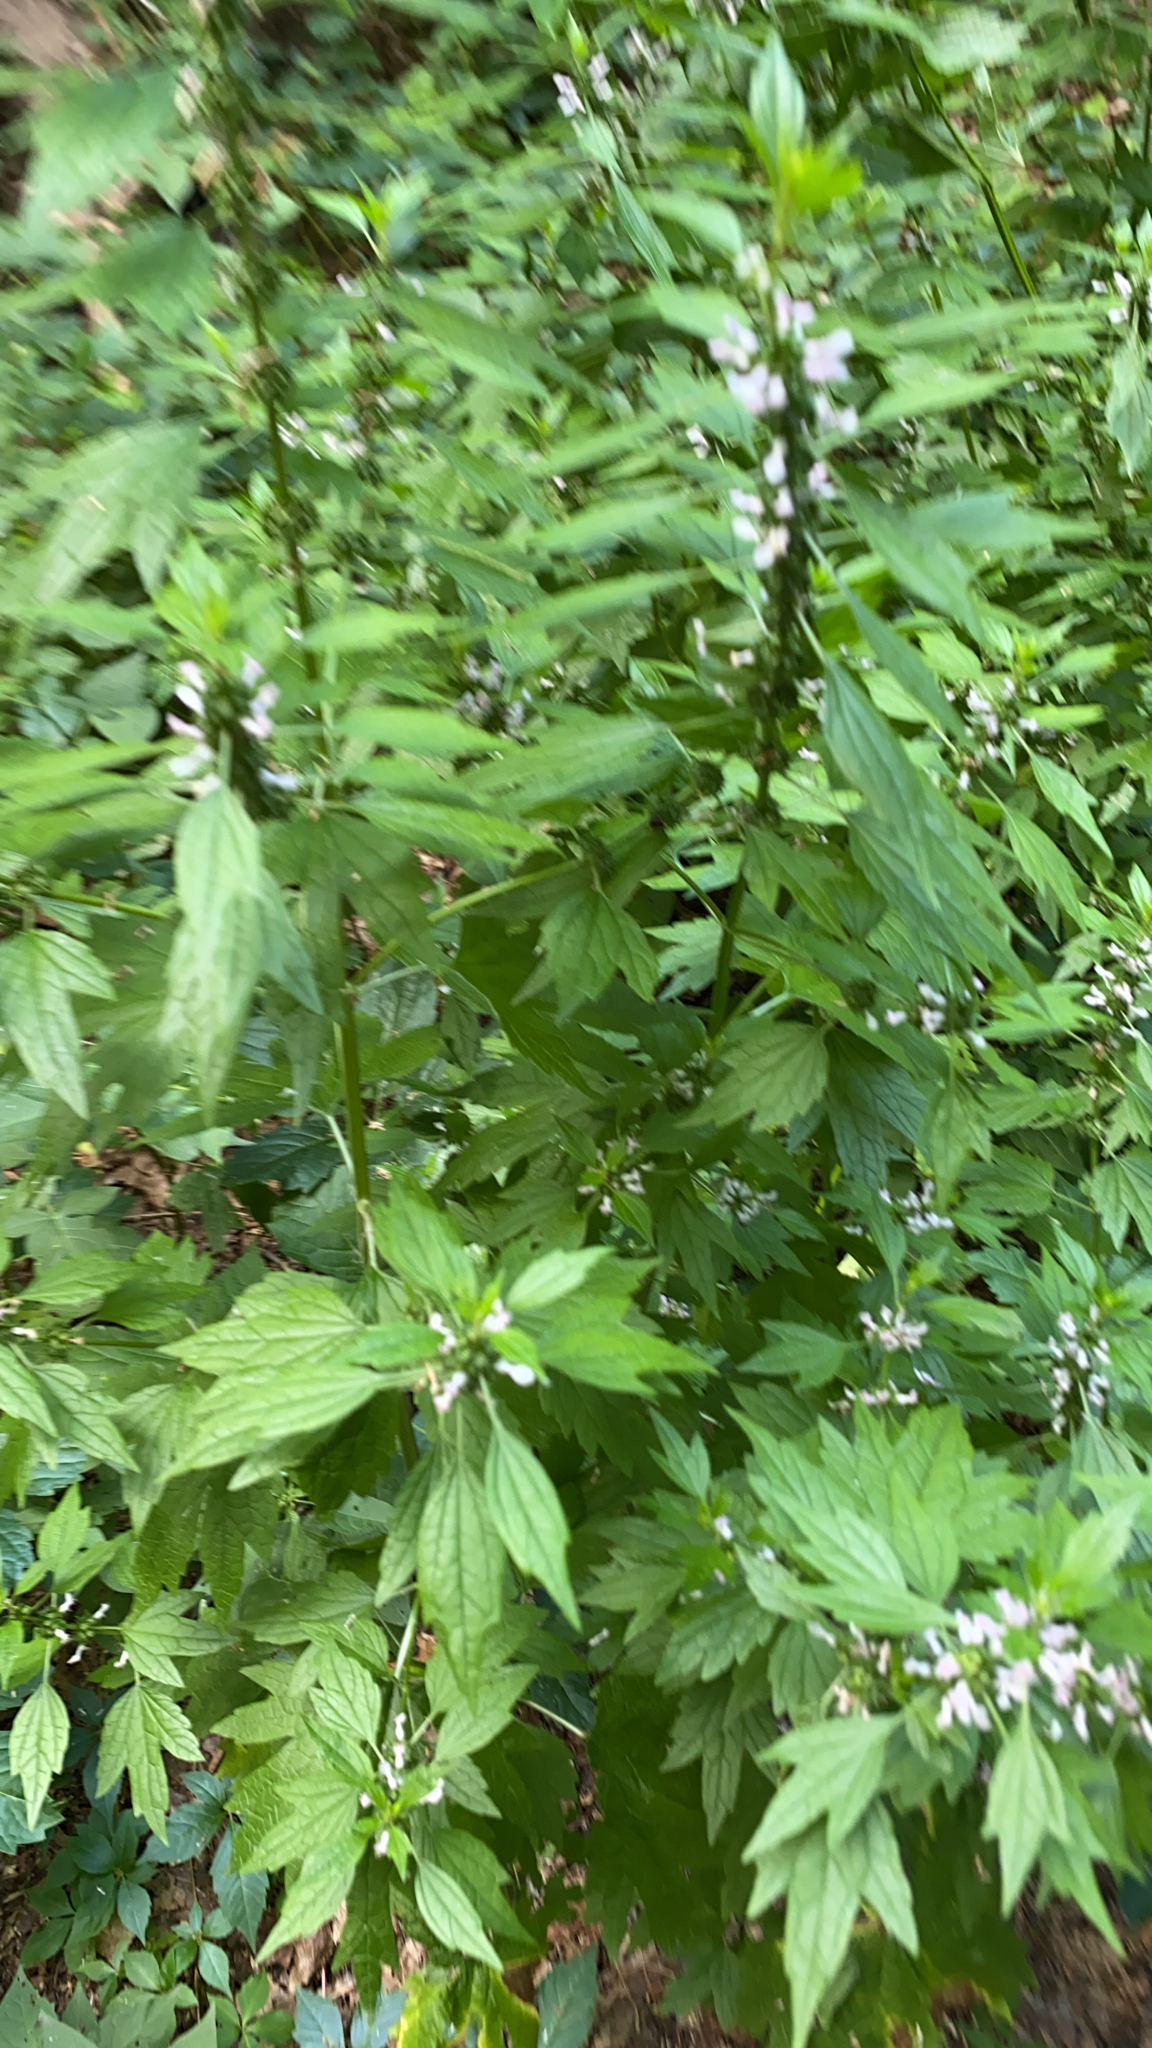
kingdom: Plantae
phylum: Tracheophyta
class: Magnoliopsida
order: Lamiales
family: Lamiaceae
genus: Leonurus
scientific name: Leonurus cardiaca
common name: Motherwort
